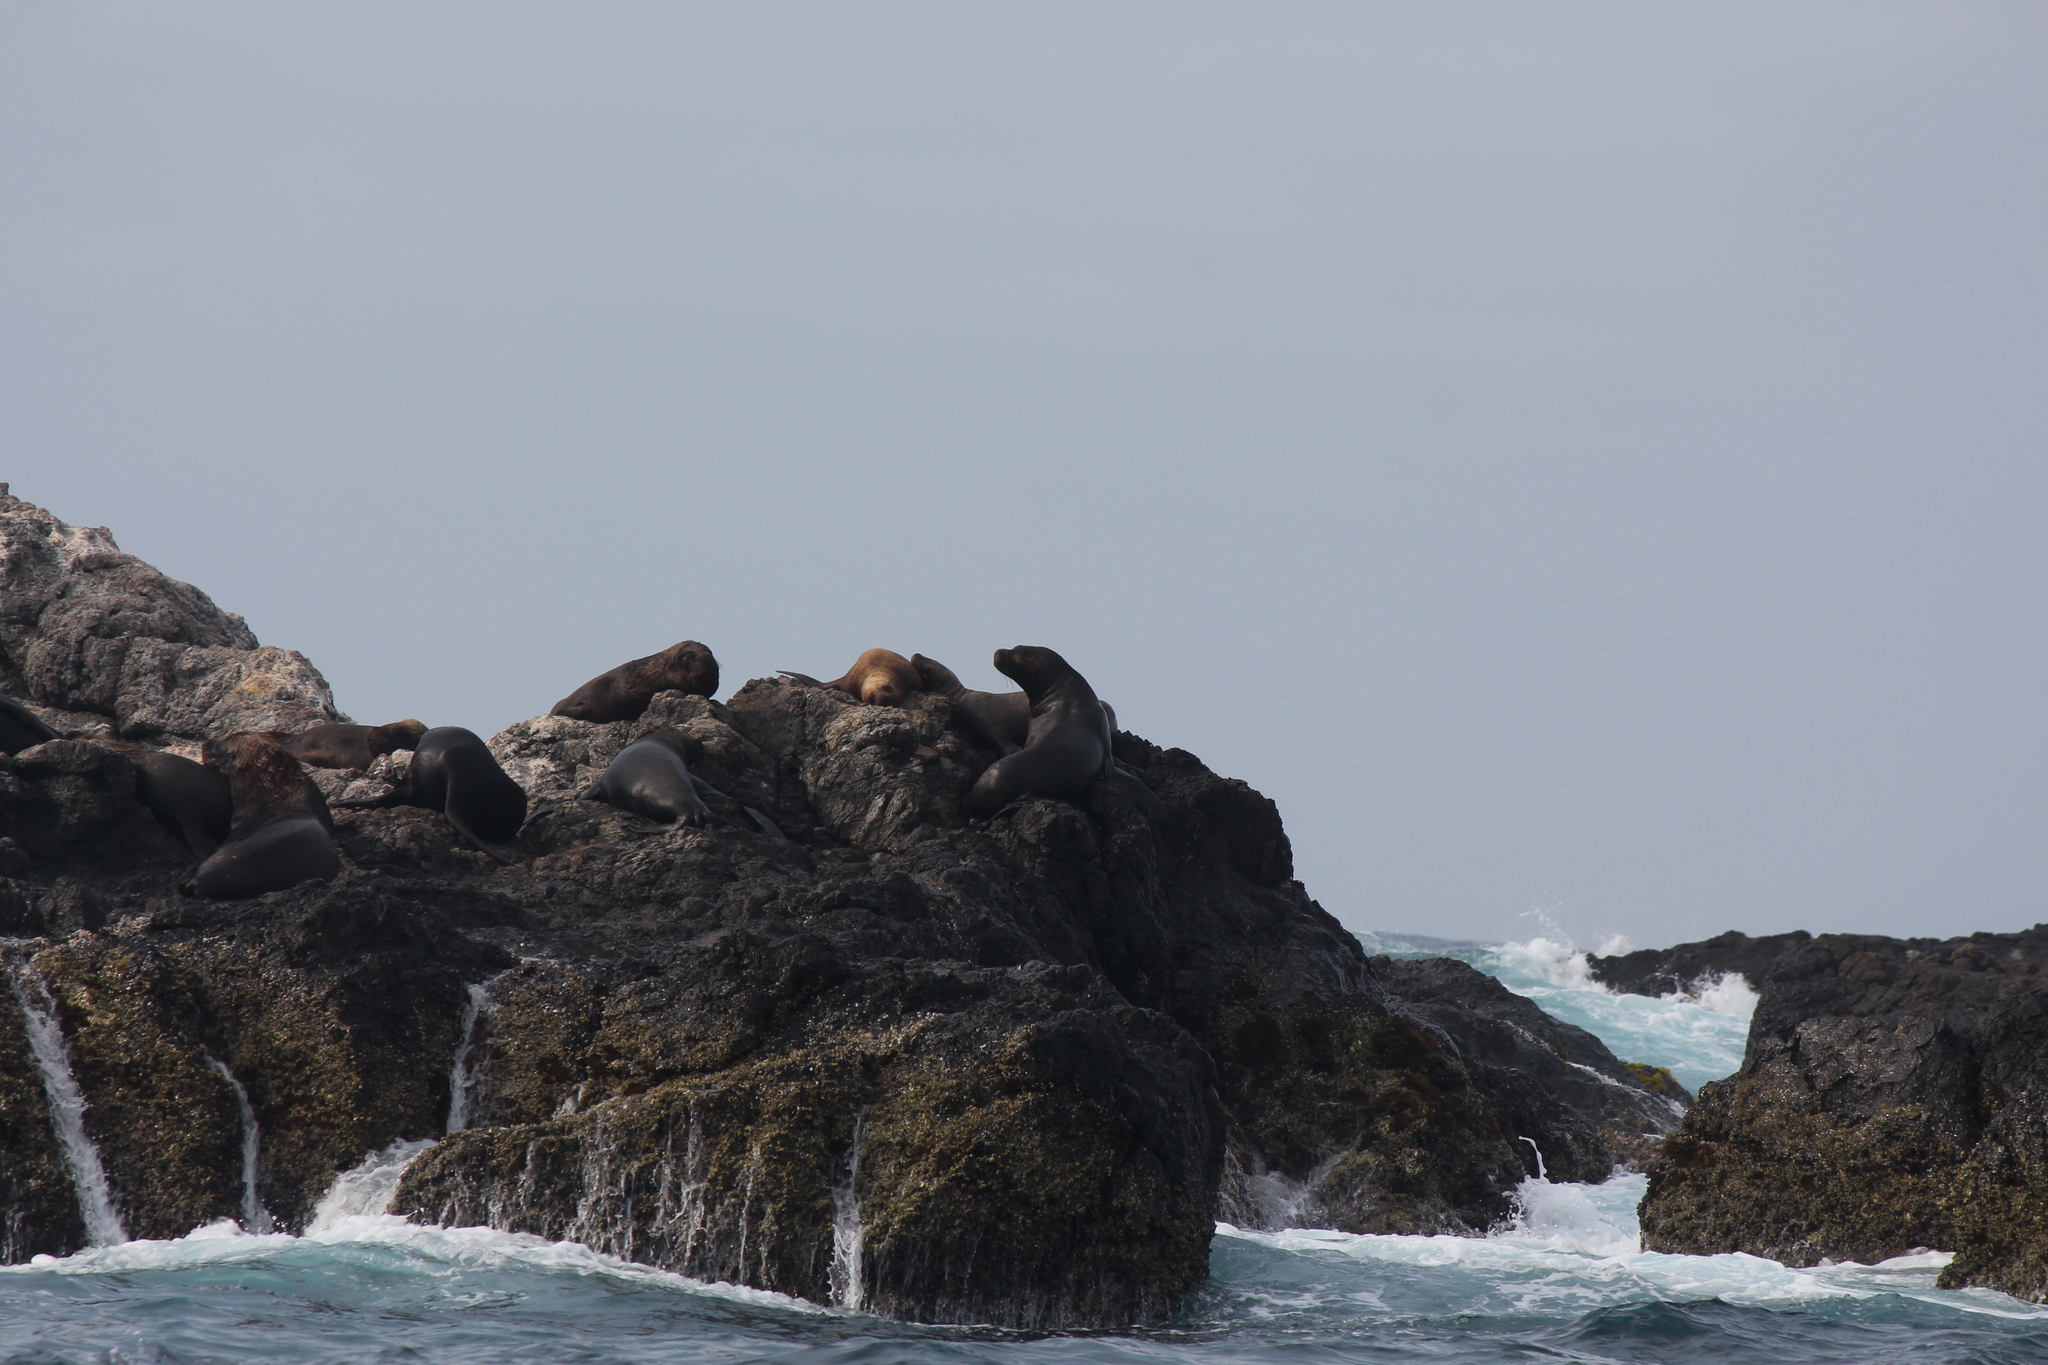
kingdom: Animalia
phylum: Chordata
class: Mammalia
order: Carnivora
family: Otariidae
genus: Otaria
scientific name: Otaria byronia
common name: South american sea lion
